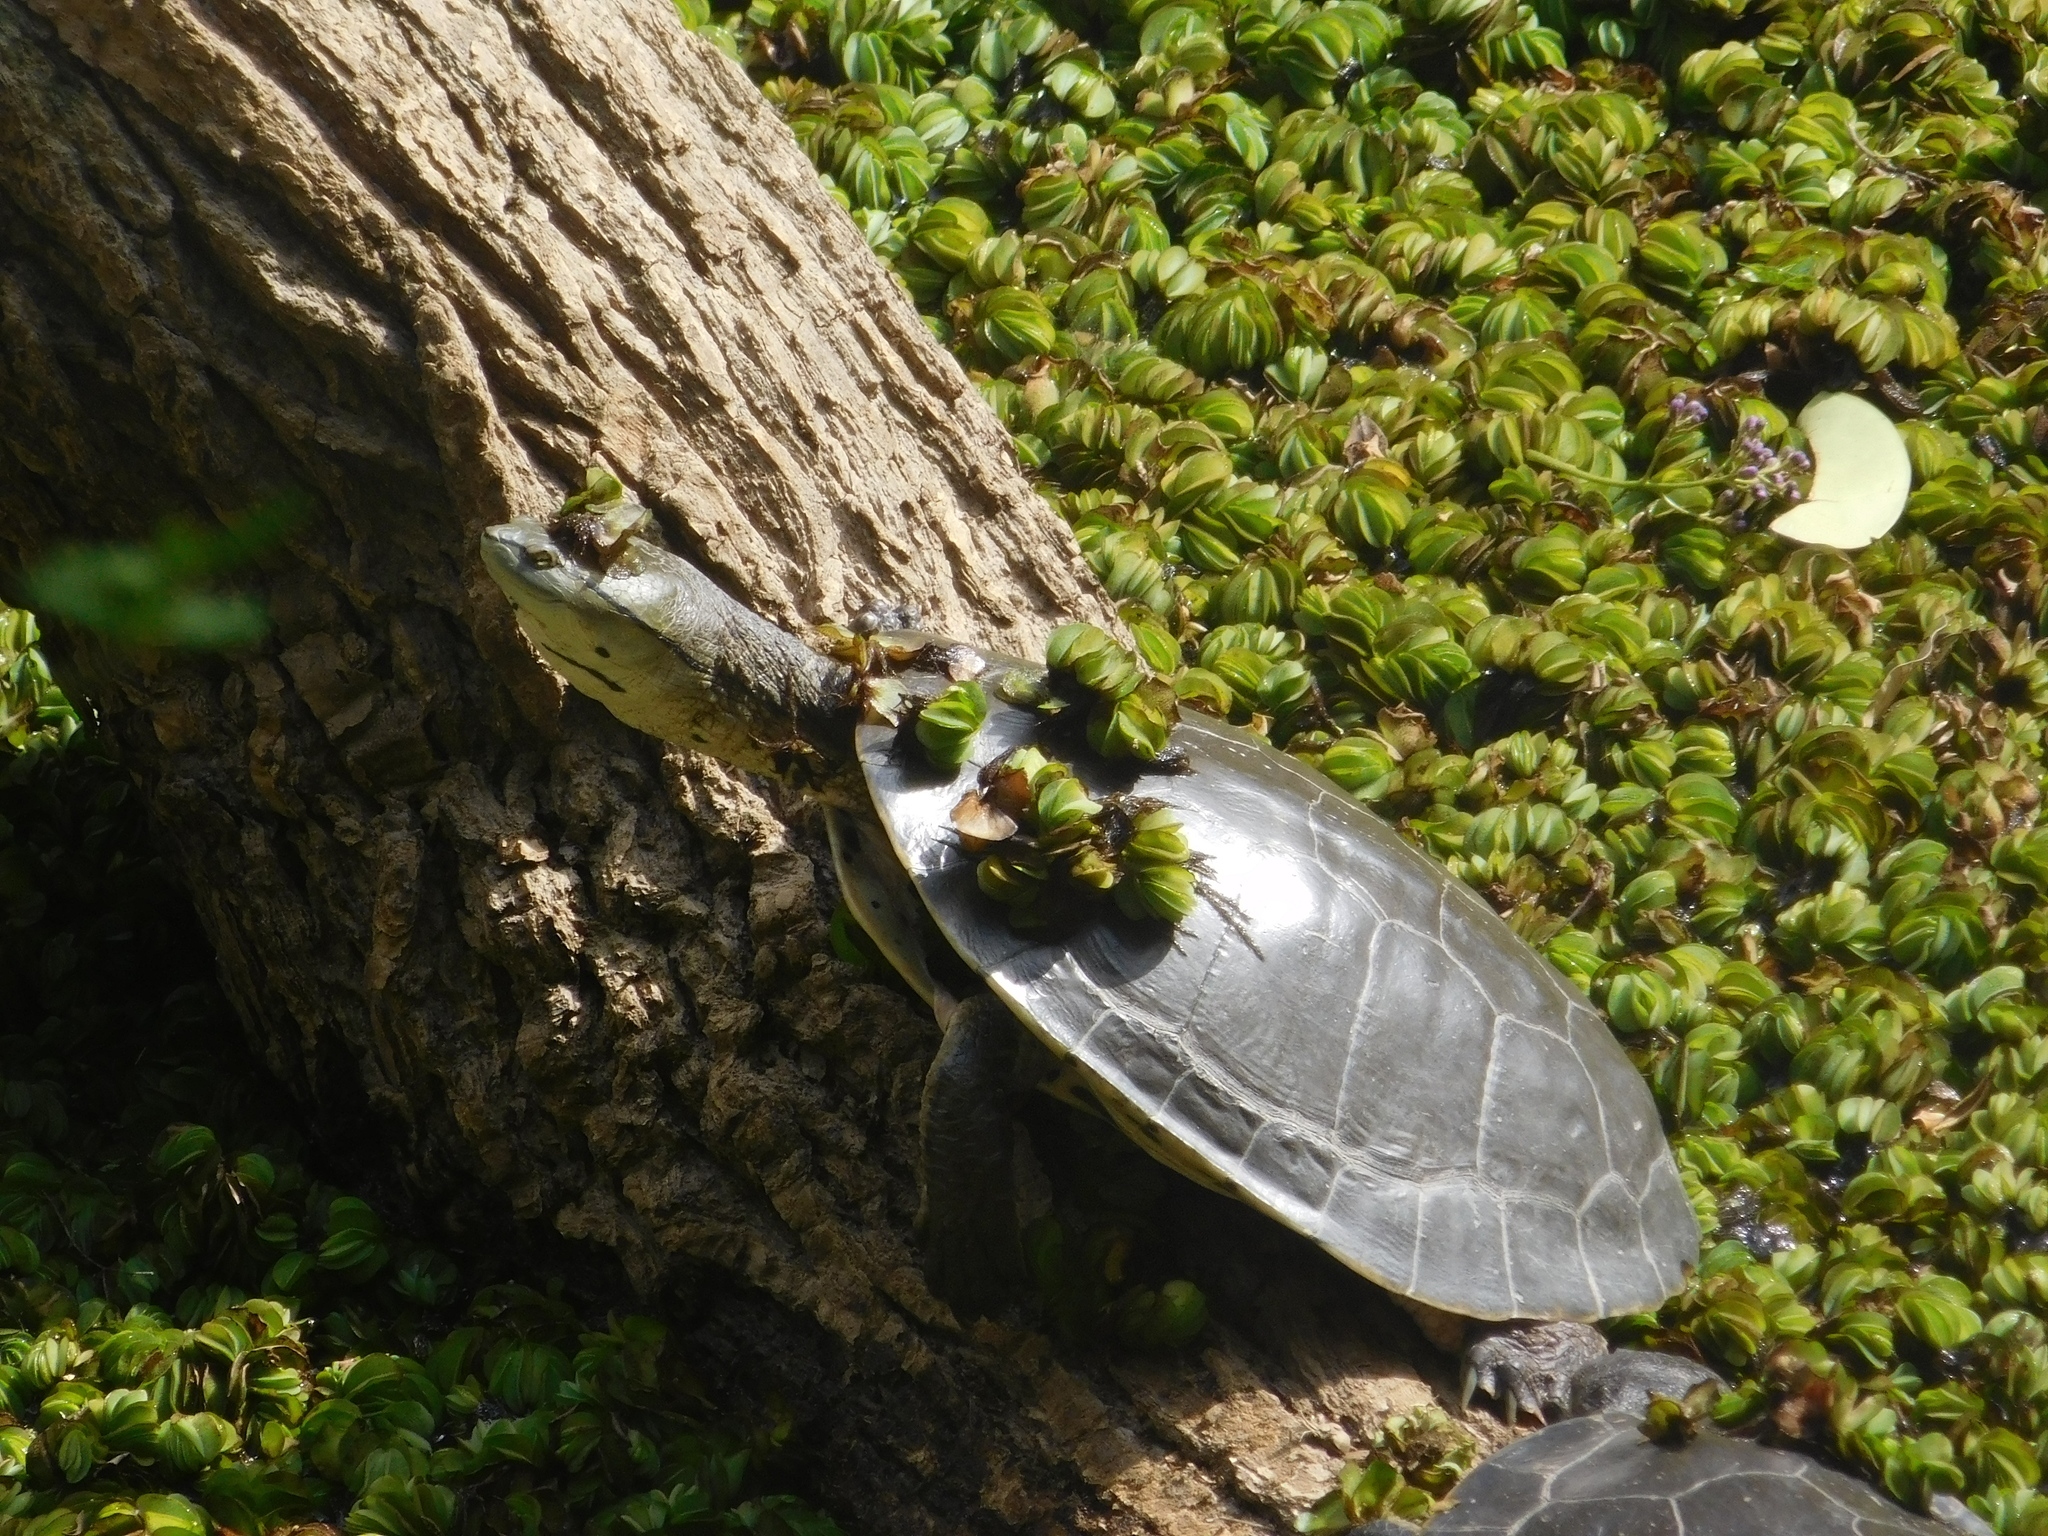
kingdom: Animalia
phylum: Chordata
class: Testudines
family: Chelidae
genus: Phrynops
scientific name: Phrynops hilarii
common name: Side-necked turtle of saint hillaire
